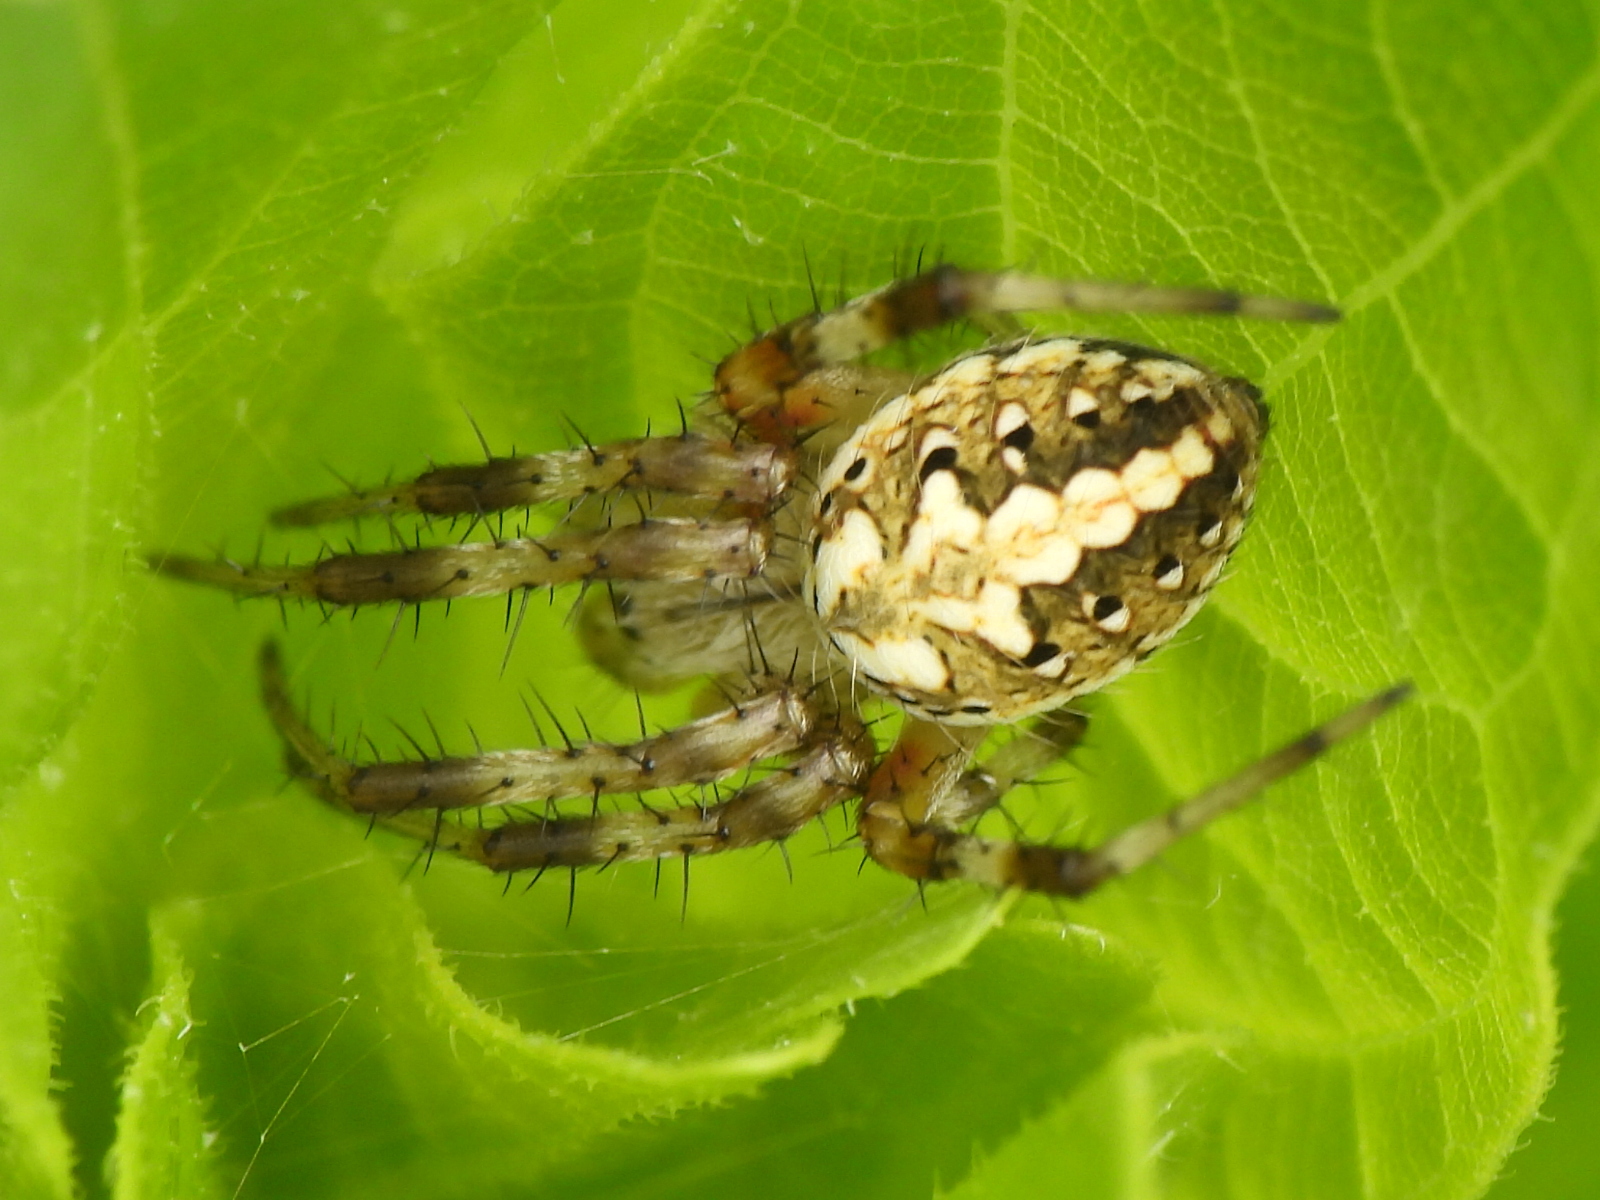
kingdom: Animalia
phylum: Arthropoda
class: Arachnida
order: Araneae
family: Araneidae
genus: Neoscona
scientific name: Neoscona oaxacensis
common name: Orb weavers
